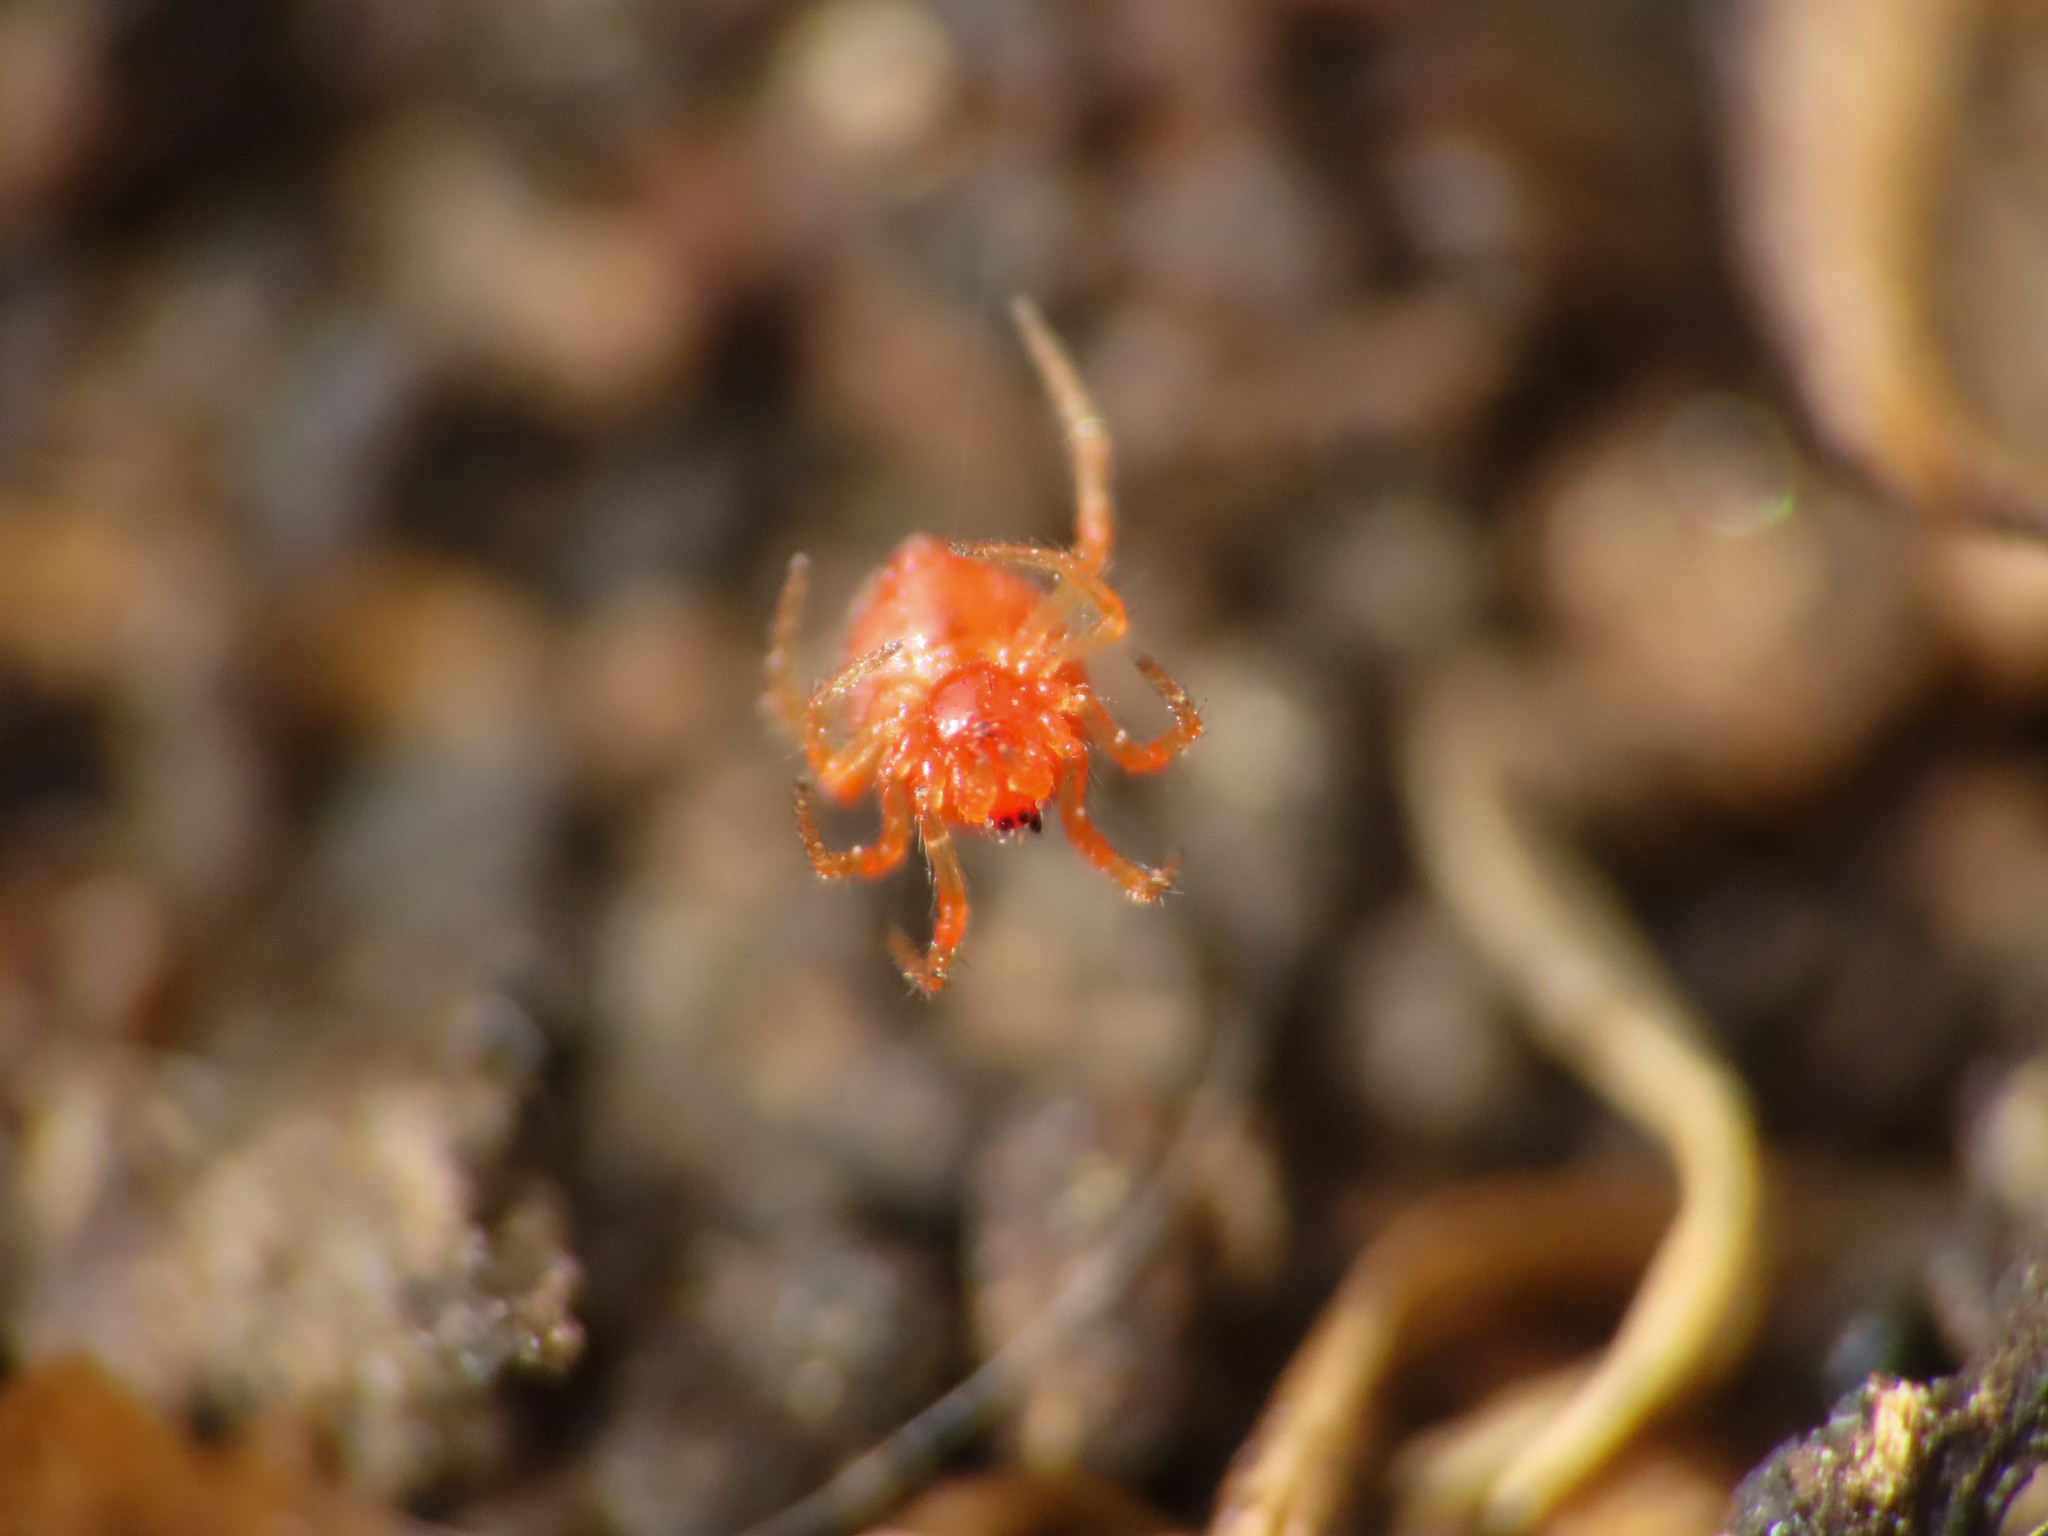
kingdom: Animalia
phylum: Arthropoda
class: Arachnida
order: Araneae
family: Theridiidae
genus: Ruborridion
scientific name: Ruborridion musivum
